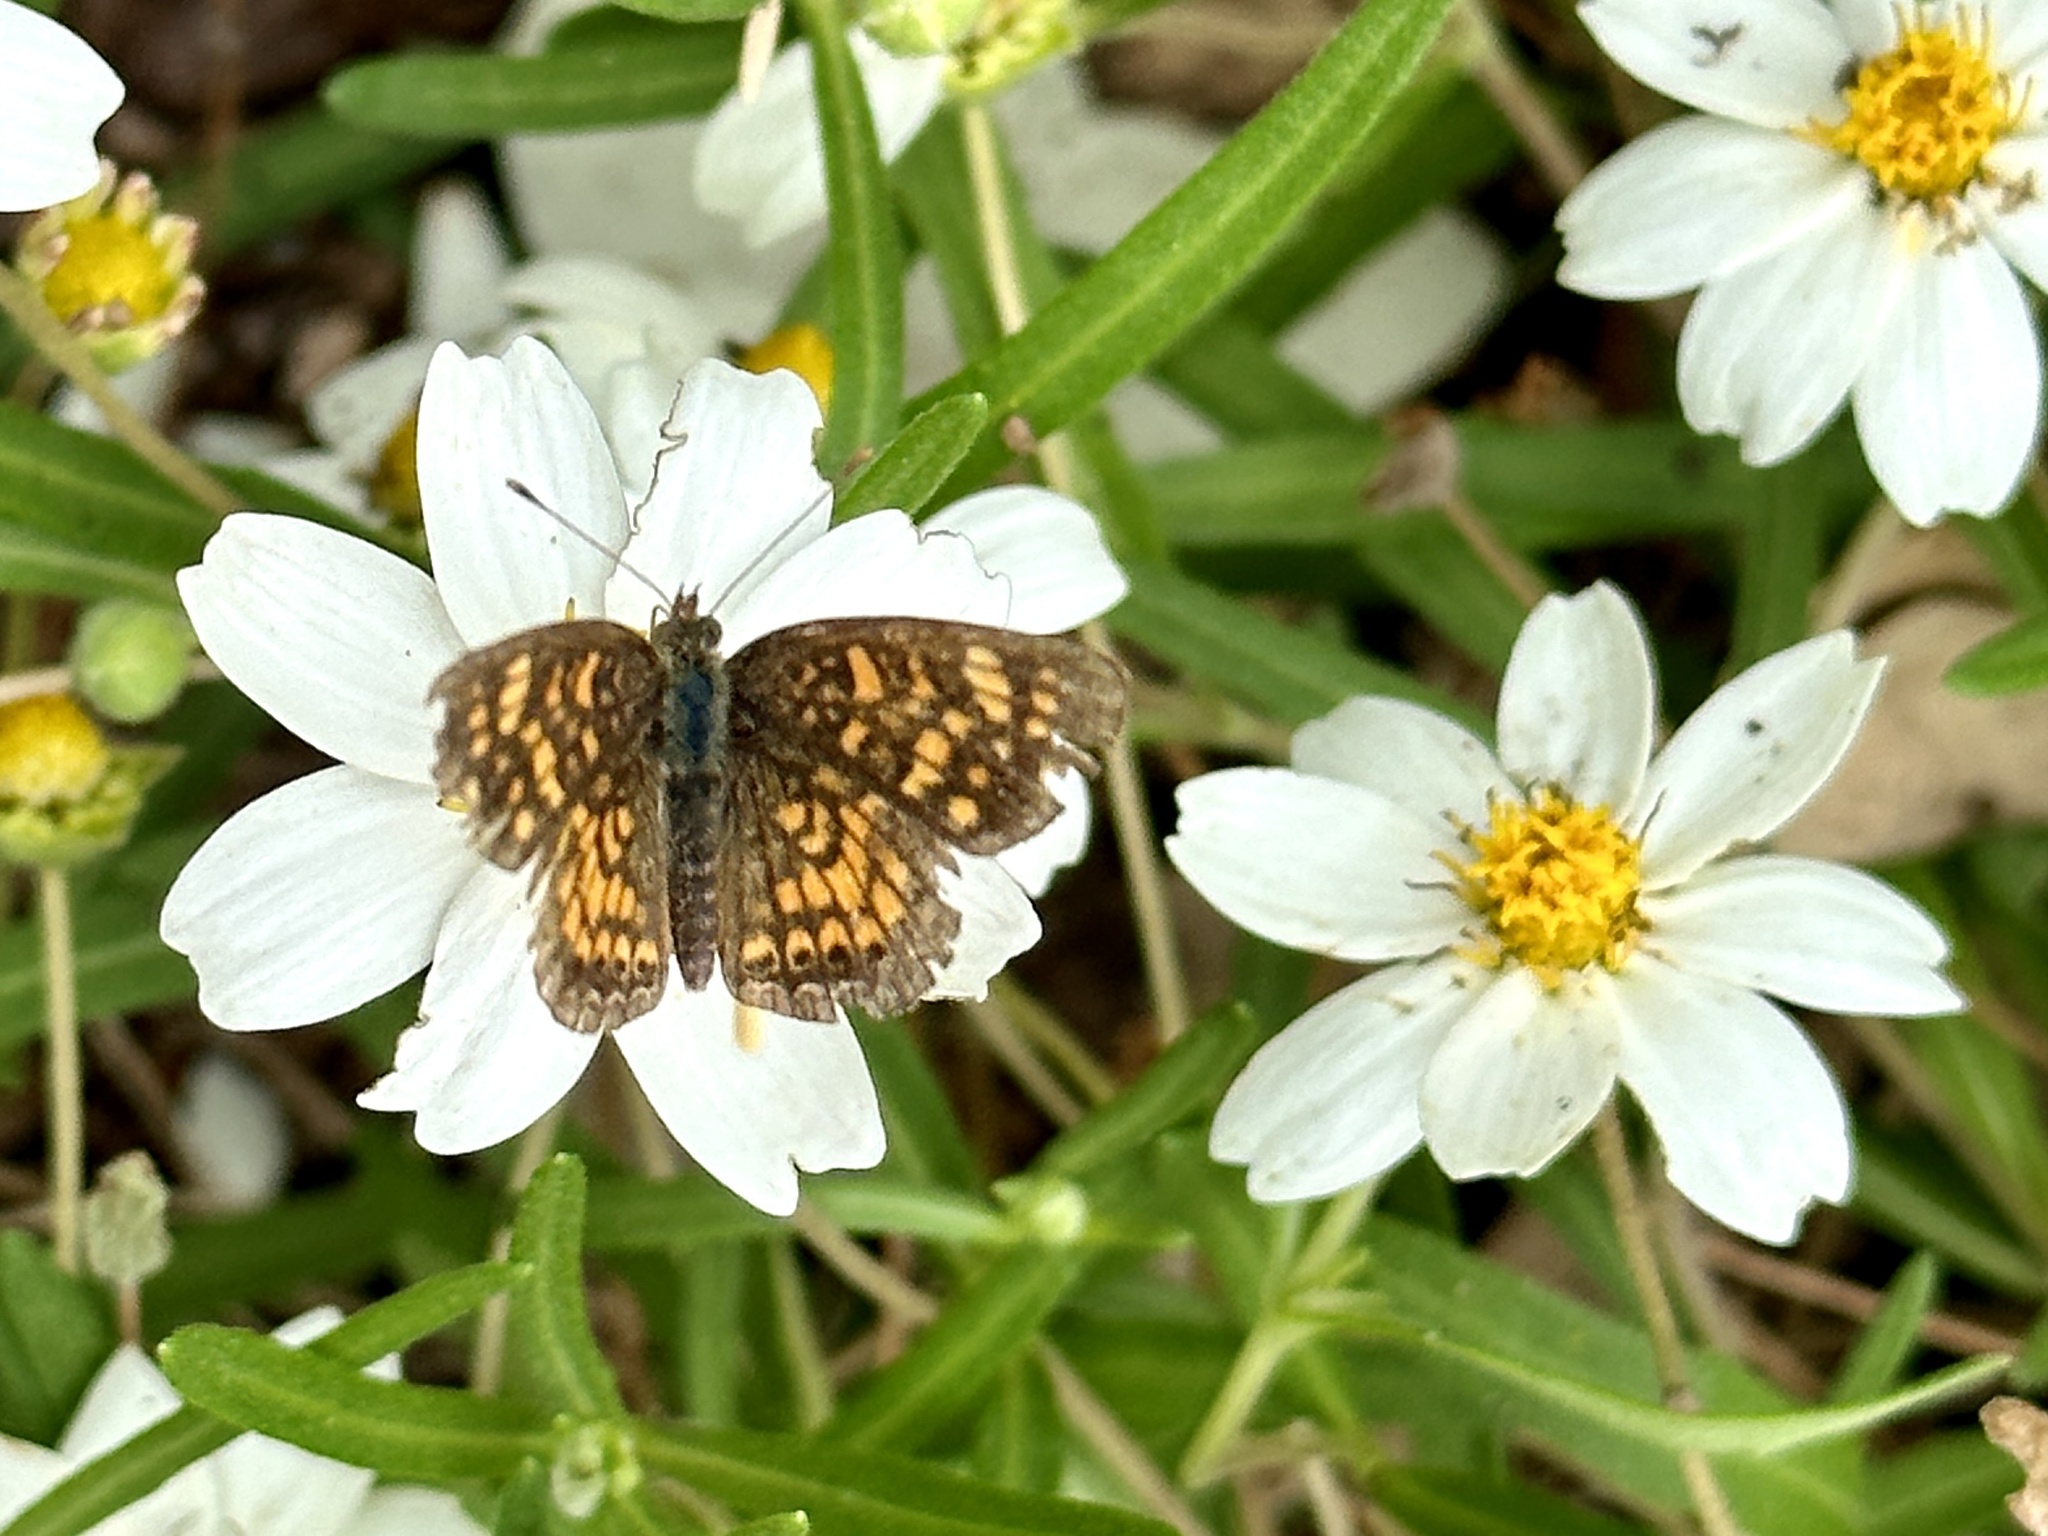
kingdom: Animalia
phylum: Arthropoda
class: Insecta
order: Lepidoptera
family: Nymphalidae
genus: Phyciodes
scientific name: Phyciodes vesta
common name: Vesta crescent
